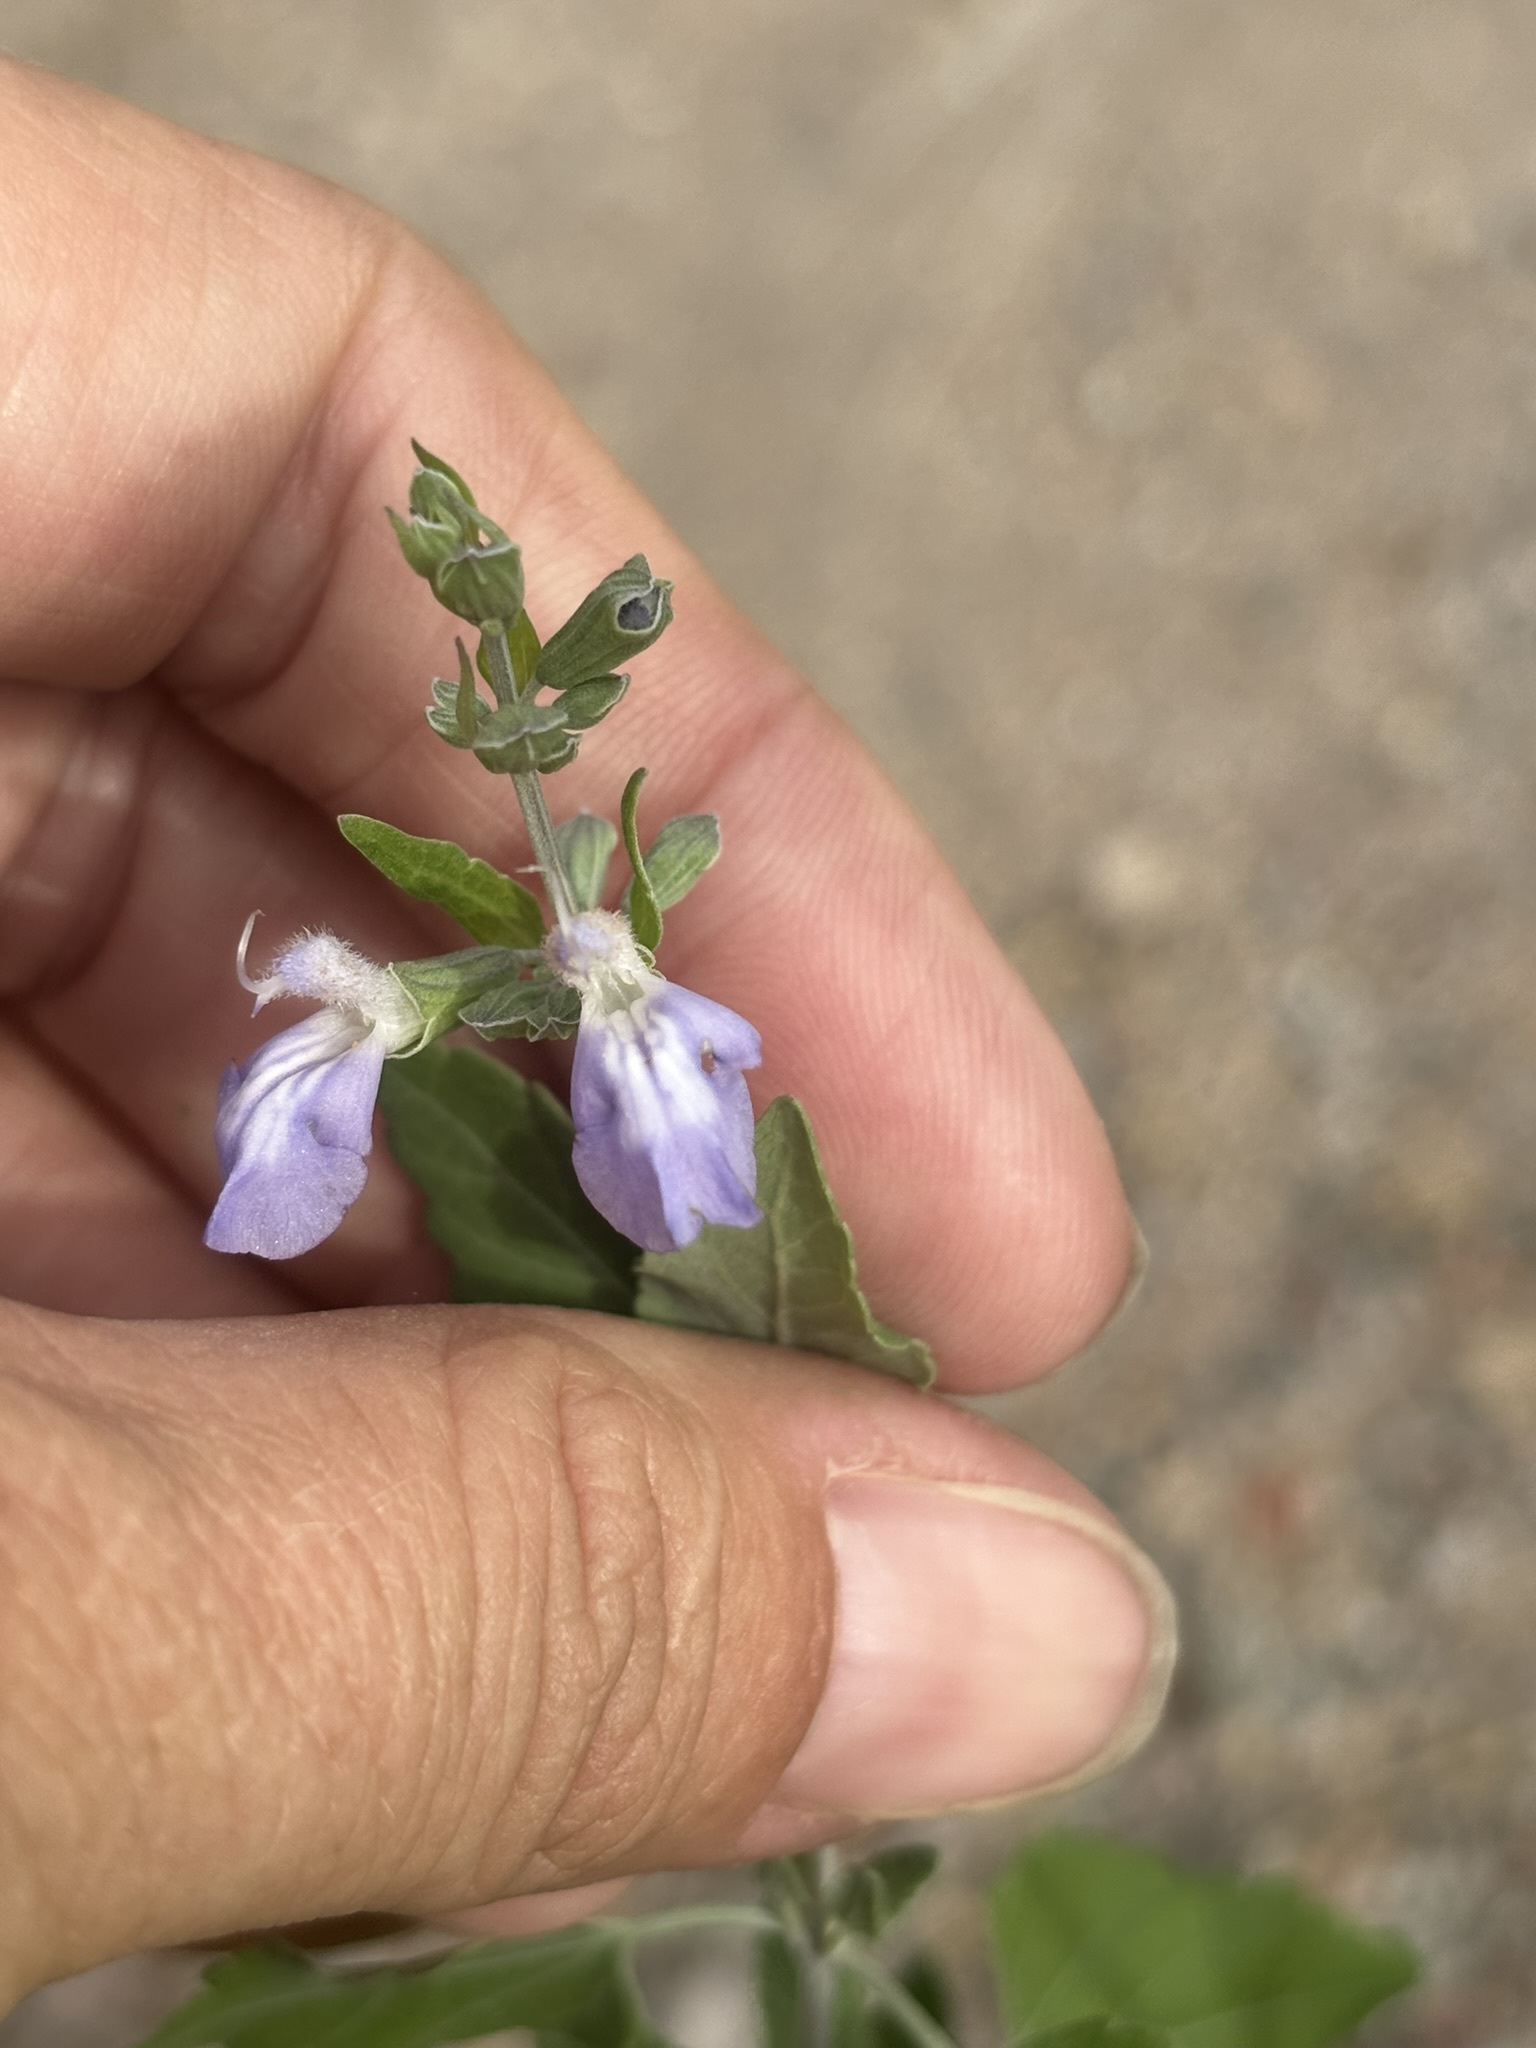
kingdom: Plantae
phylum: Tracheophyta
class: Magnoliopsida
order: Lamiales
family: Lamiaceae
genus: Salvia
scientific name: Salvia similis
